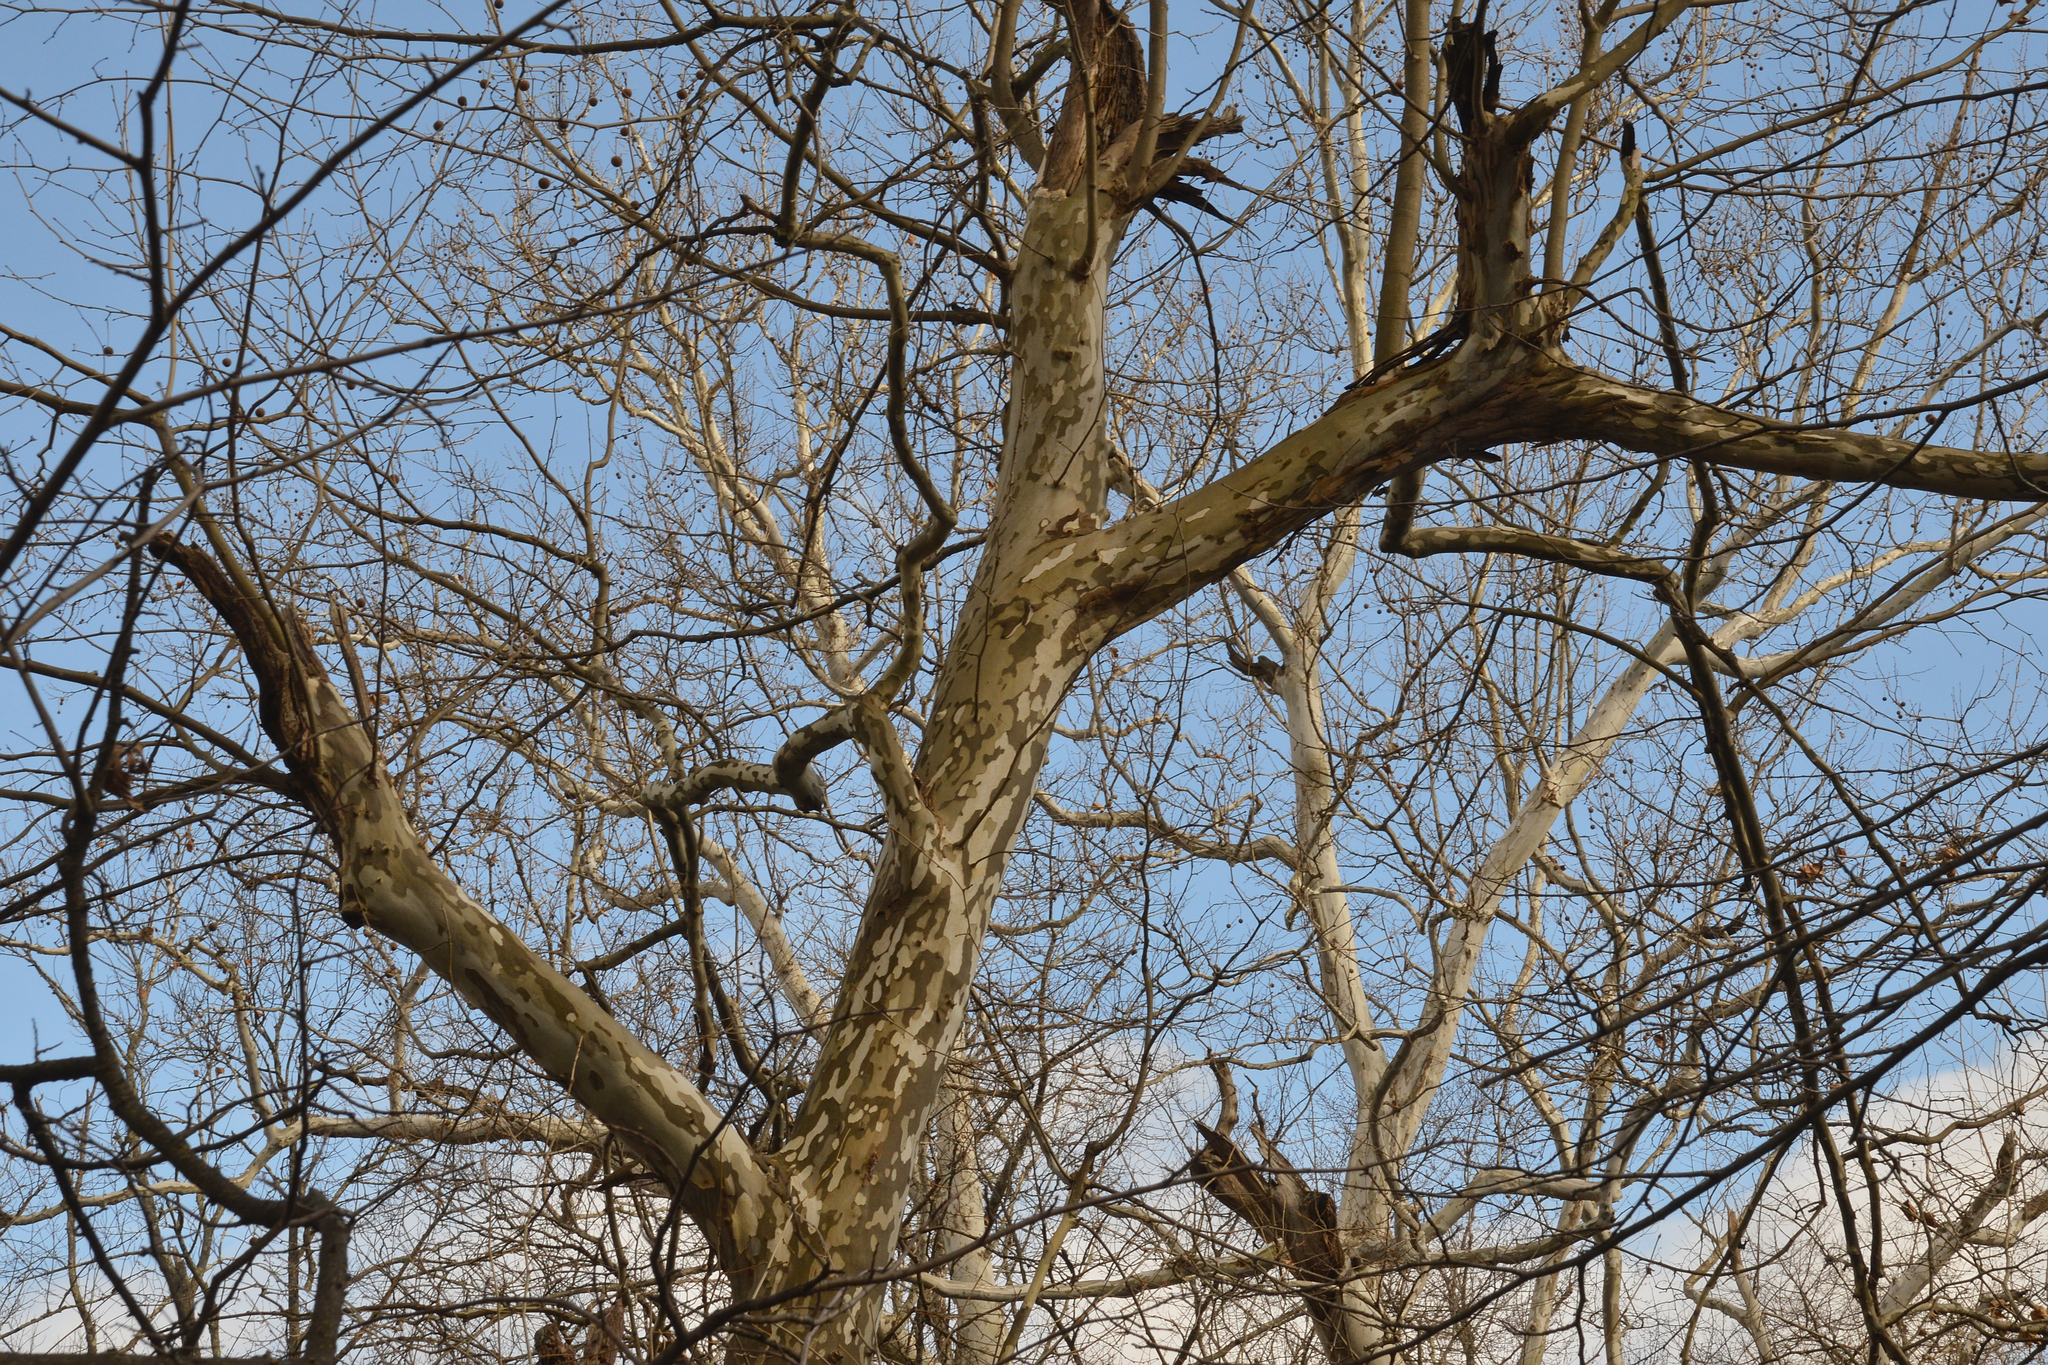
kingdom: Plantae
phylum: Tracheophyta
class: Magnoliopsida
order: Proteales
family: Platanaceae
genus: Platanus
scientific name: Platanus occidentalis
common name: American sycamore
